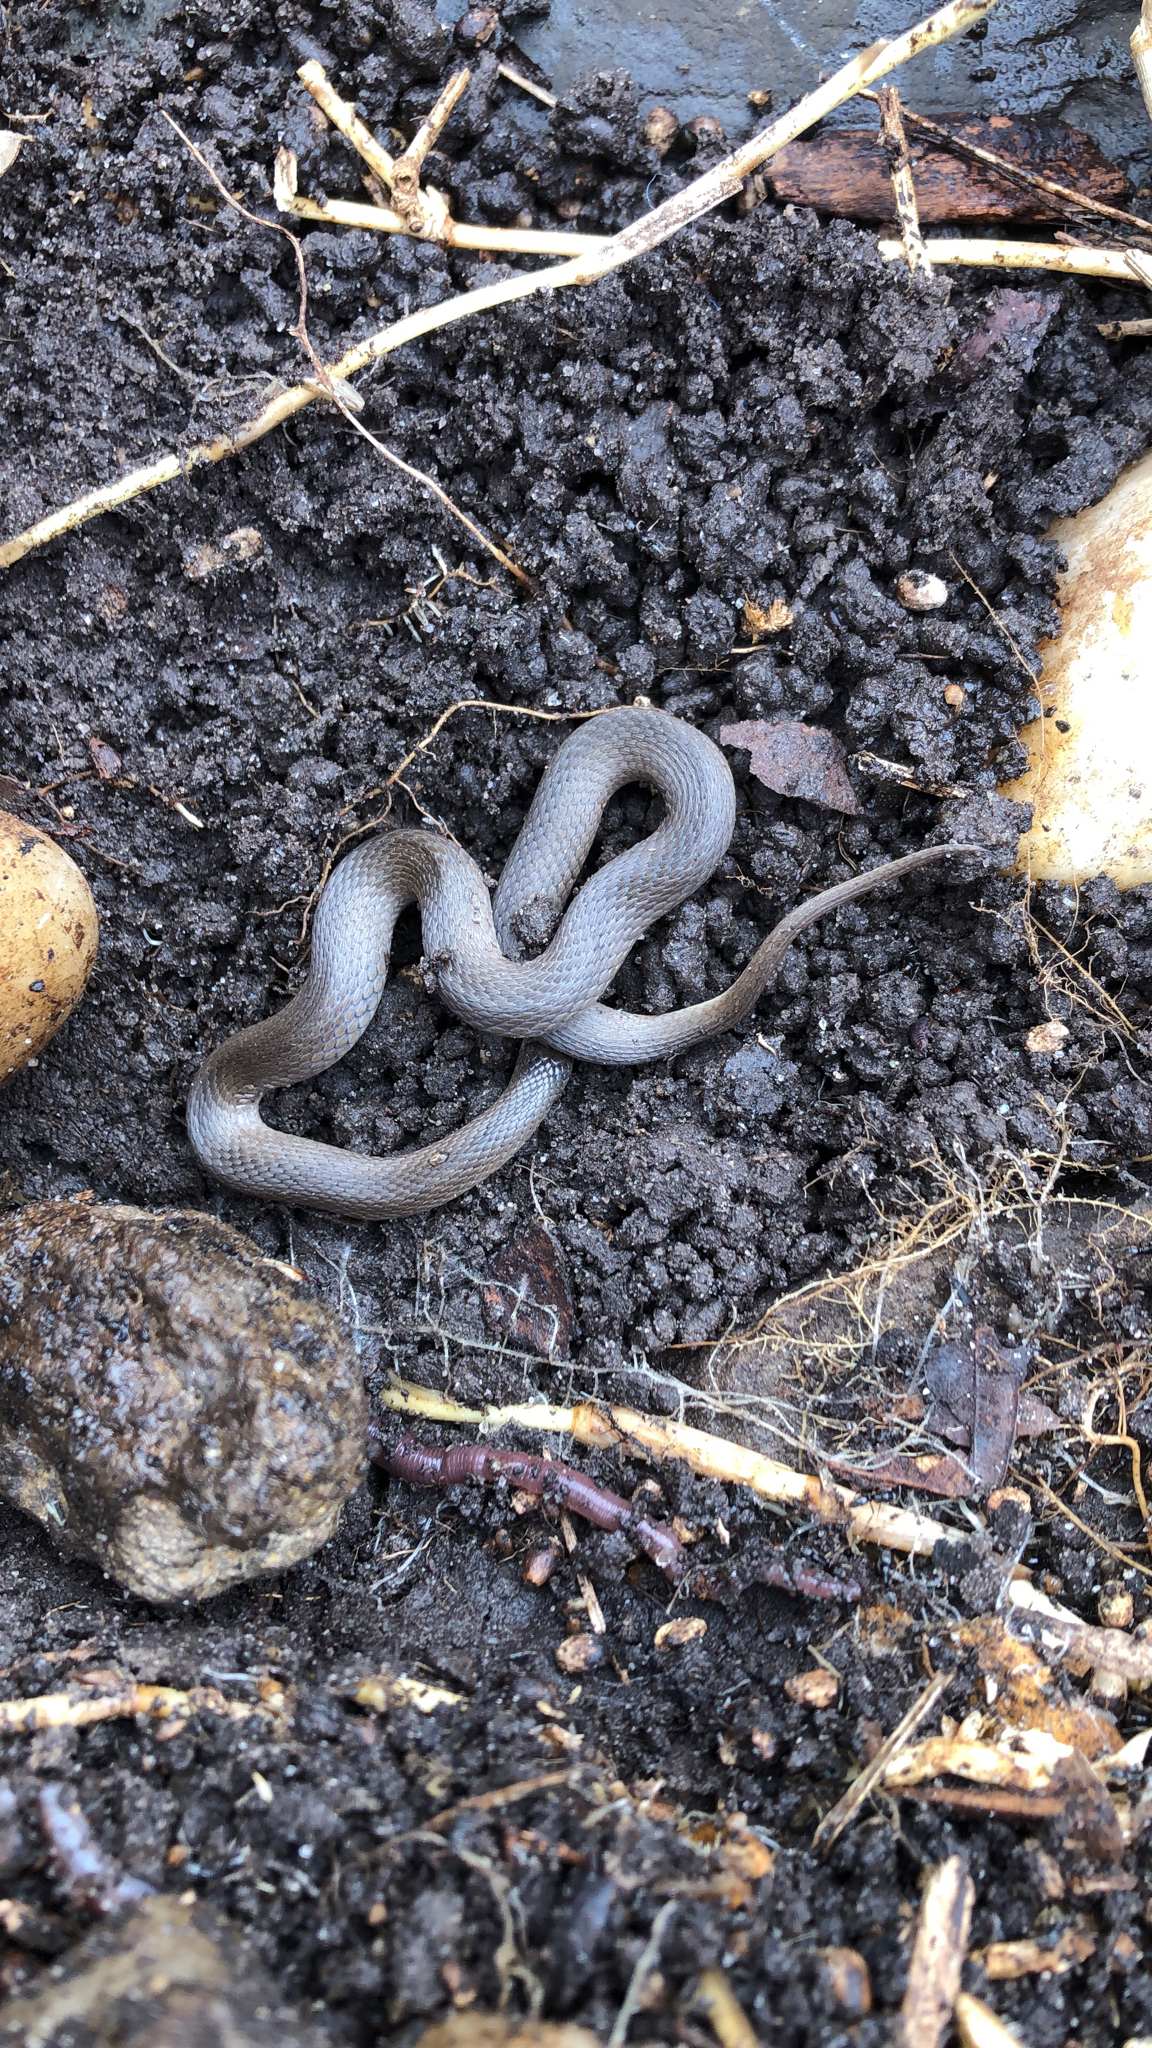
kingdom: Animalia
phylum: Chordata
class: Squamata
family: Colubridae
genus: Haldea
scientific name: Haldea striatula
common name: Rough earth snake
